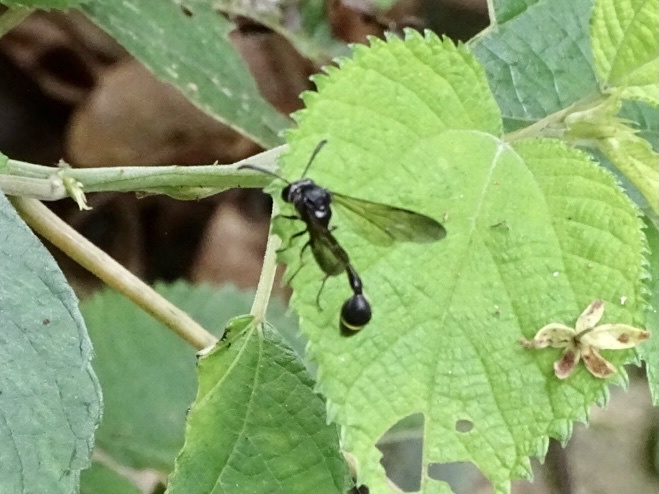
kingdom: Animalia
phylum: Arthropoda
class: Insecta
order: Hymenoptera
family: Vespidae
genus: Eustenogaster
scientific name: Eustenogaster nigra
